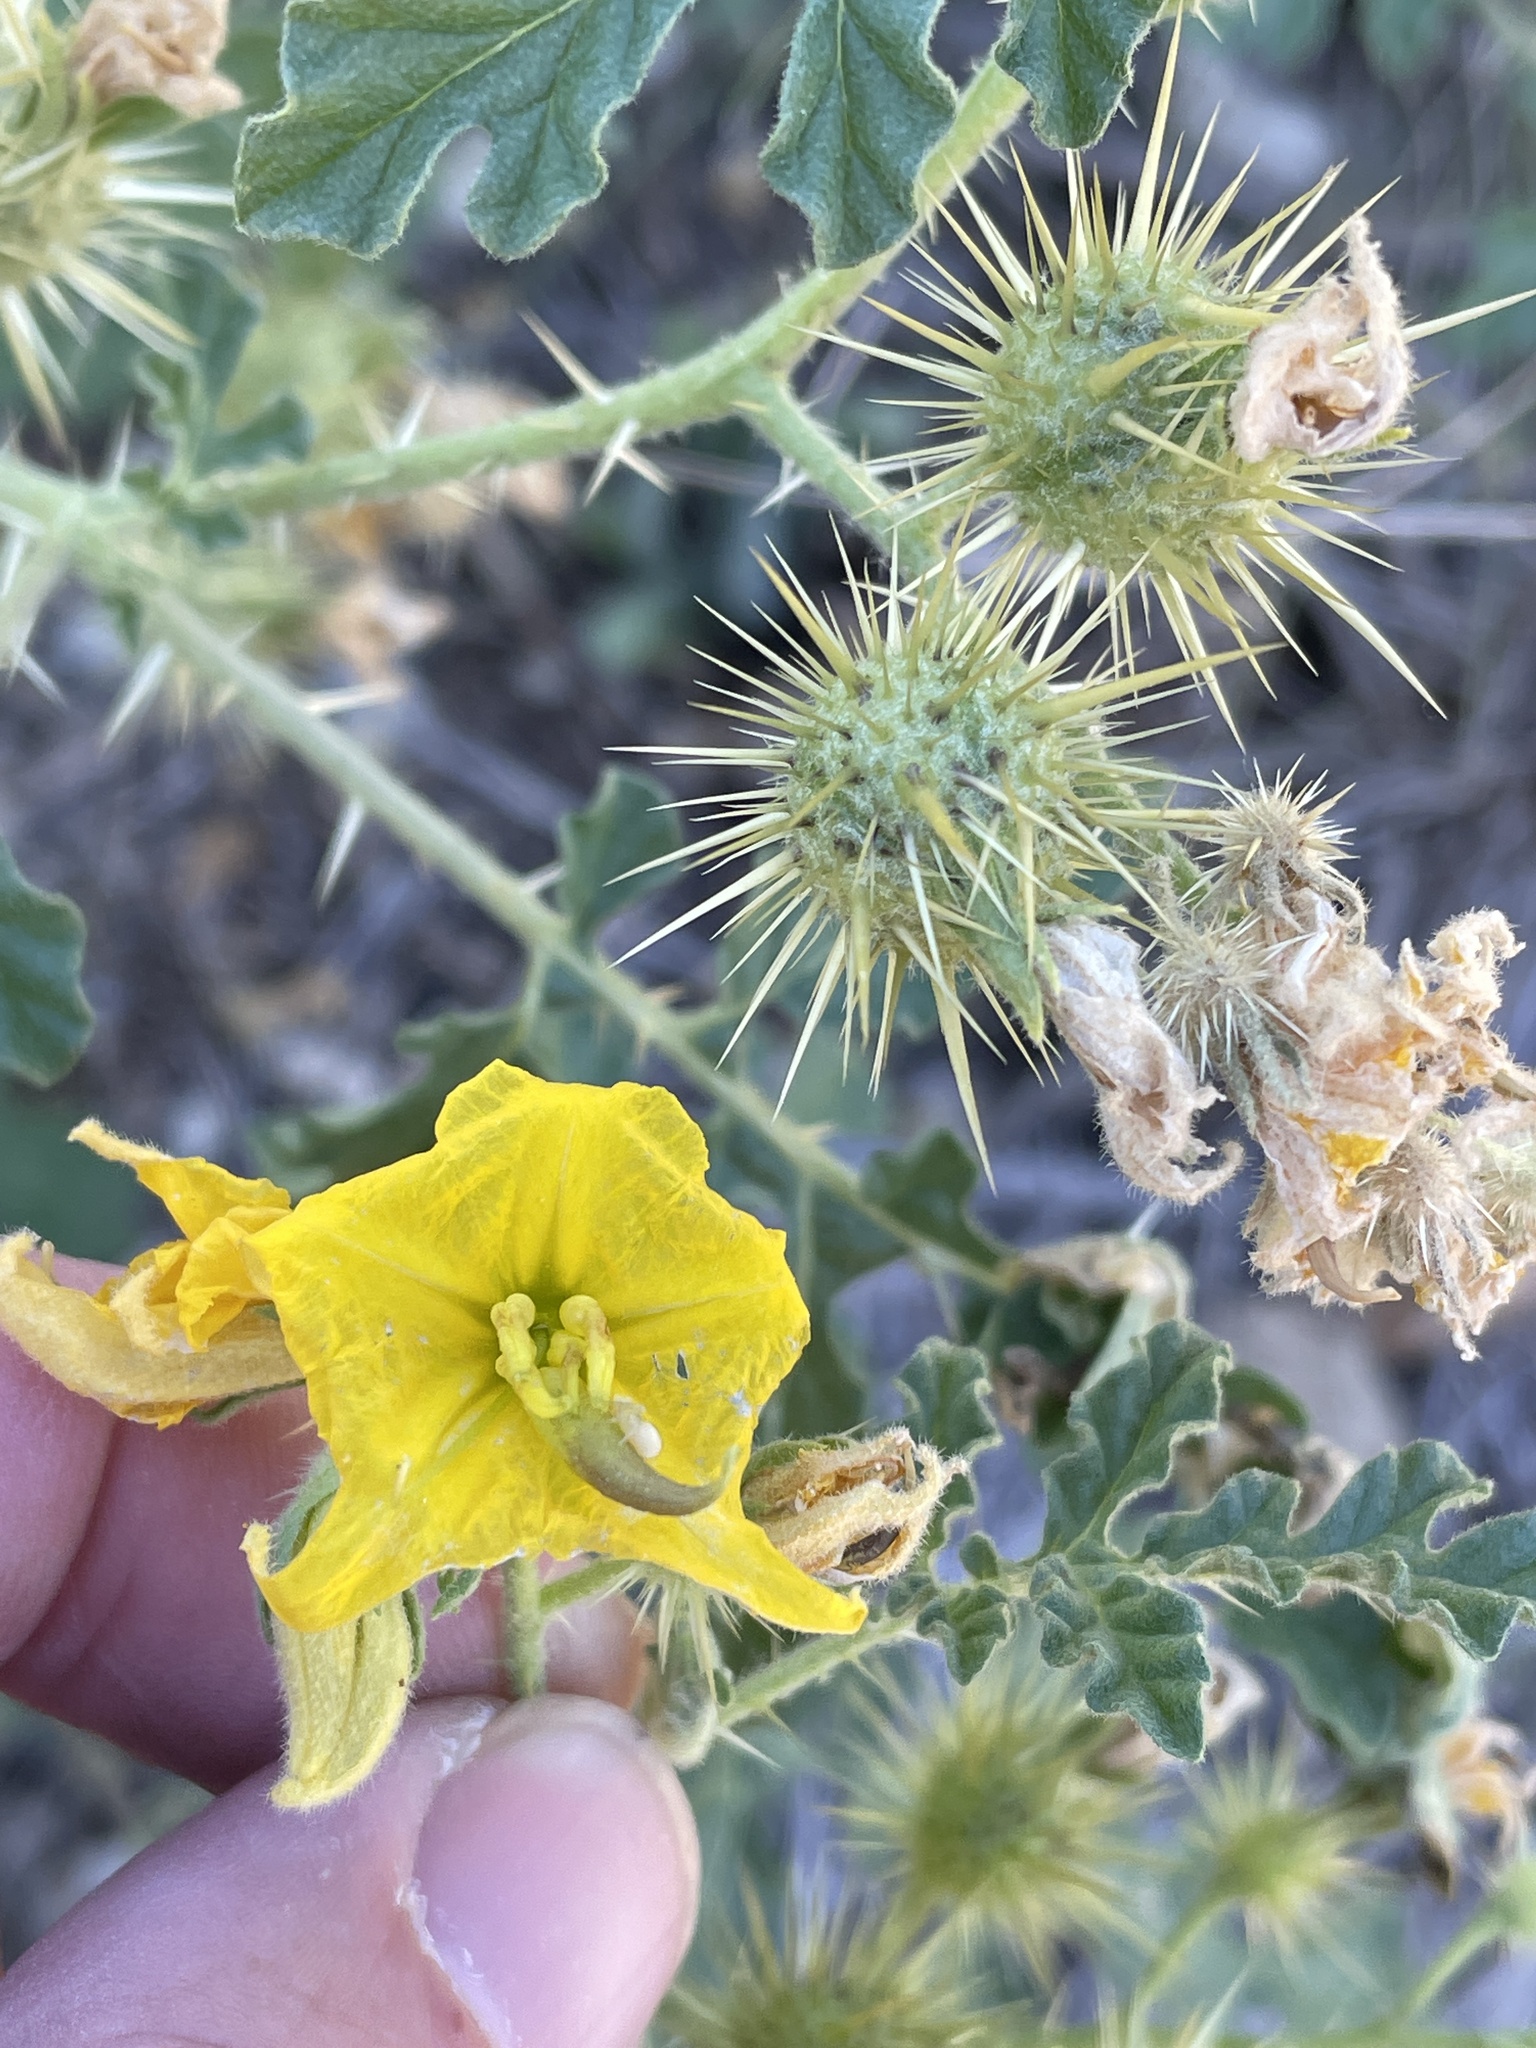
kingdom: Plantae
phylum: Tracheophyta
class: Magnoliopsida
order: Solanales
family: Solanaceae
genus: Solanum
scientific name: Solanum angustifolium
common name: Buffalobur nightshade
